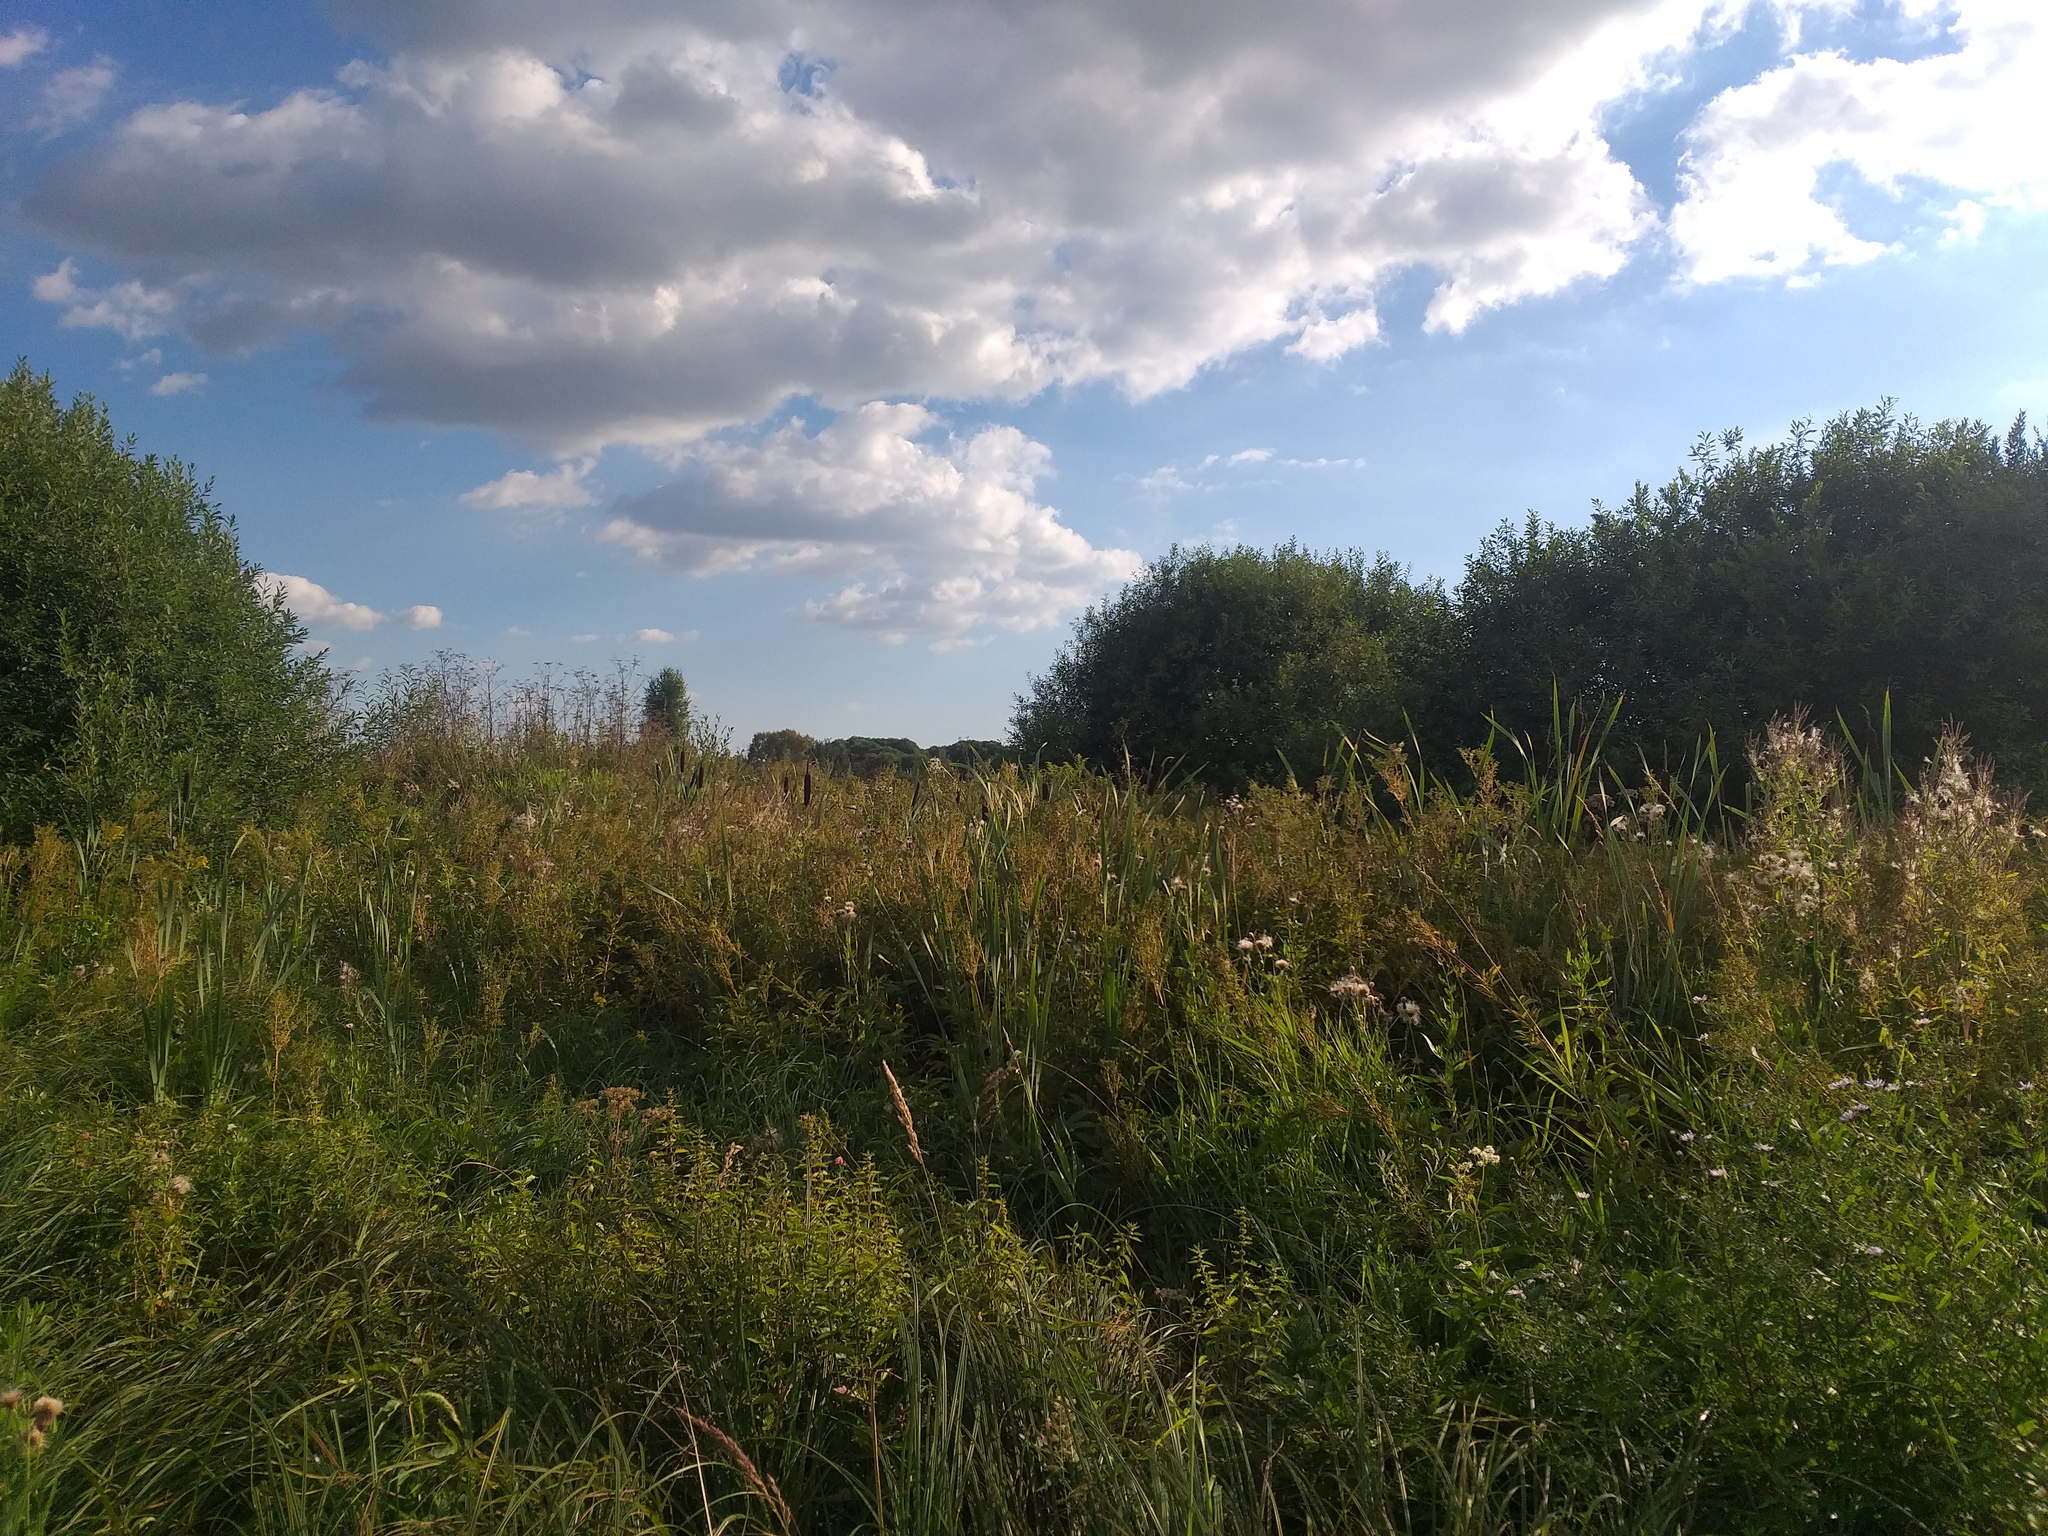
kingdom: Plantae
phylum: Tracheophyta
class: Liliopsida
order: Poales
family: Typhaceae
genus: Typha
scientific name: Typha latifolia
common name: Broadleaf cattail
